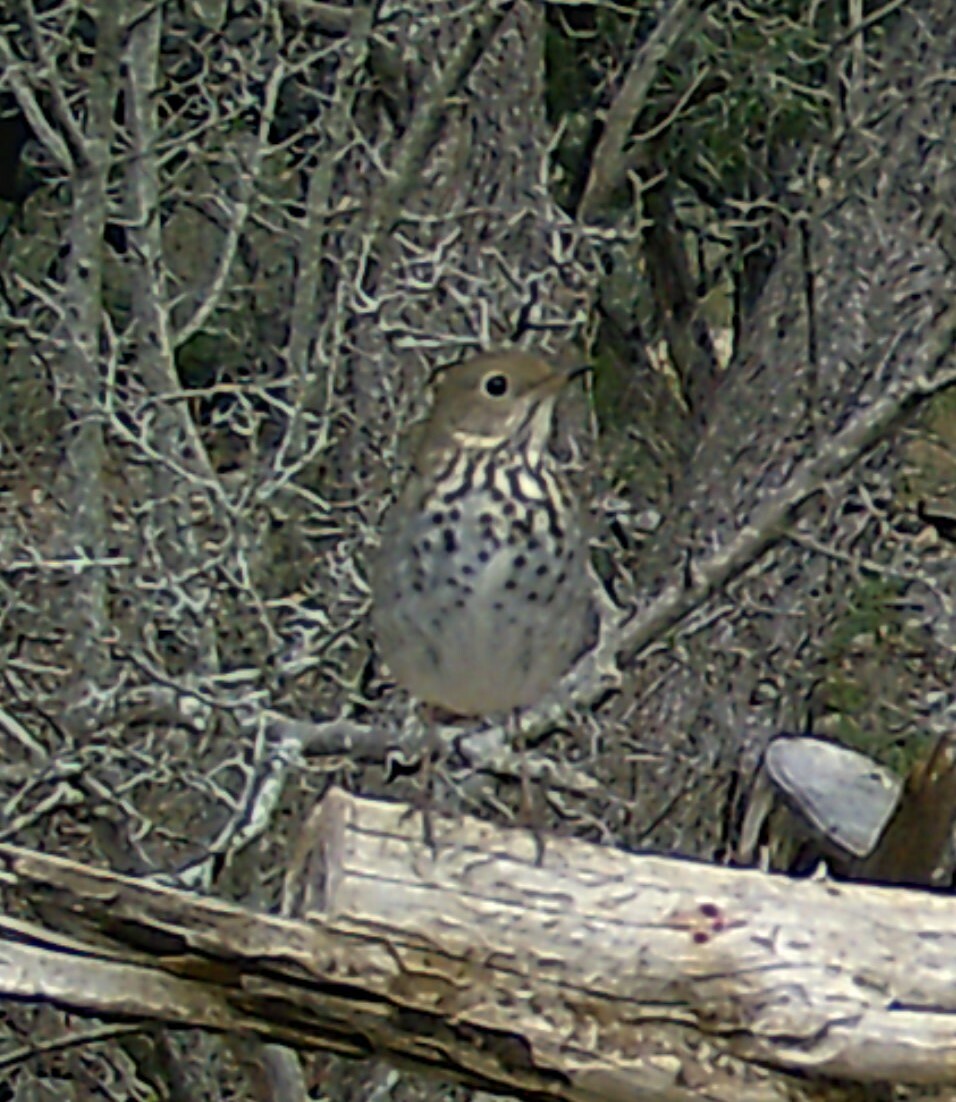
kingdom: Animalia
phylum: Chordata
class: Aves
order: Passeriformes
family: Turdidae
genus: Catharus
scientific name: Catharus guttatus
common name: Hermit thrush
